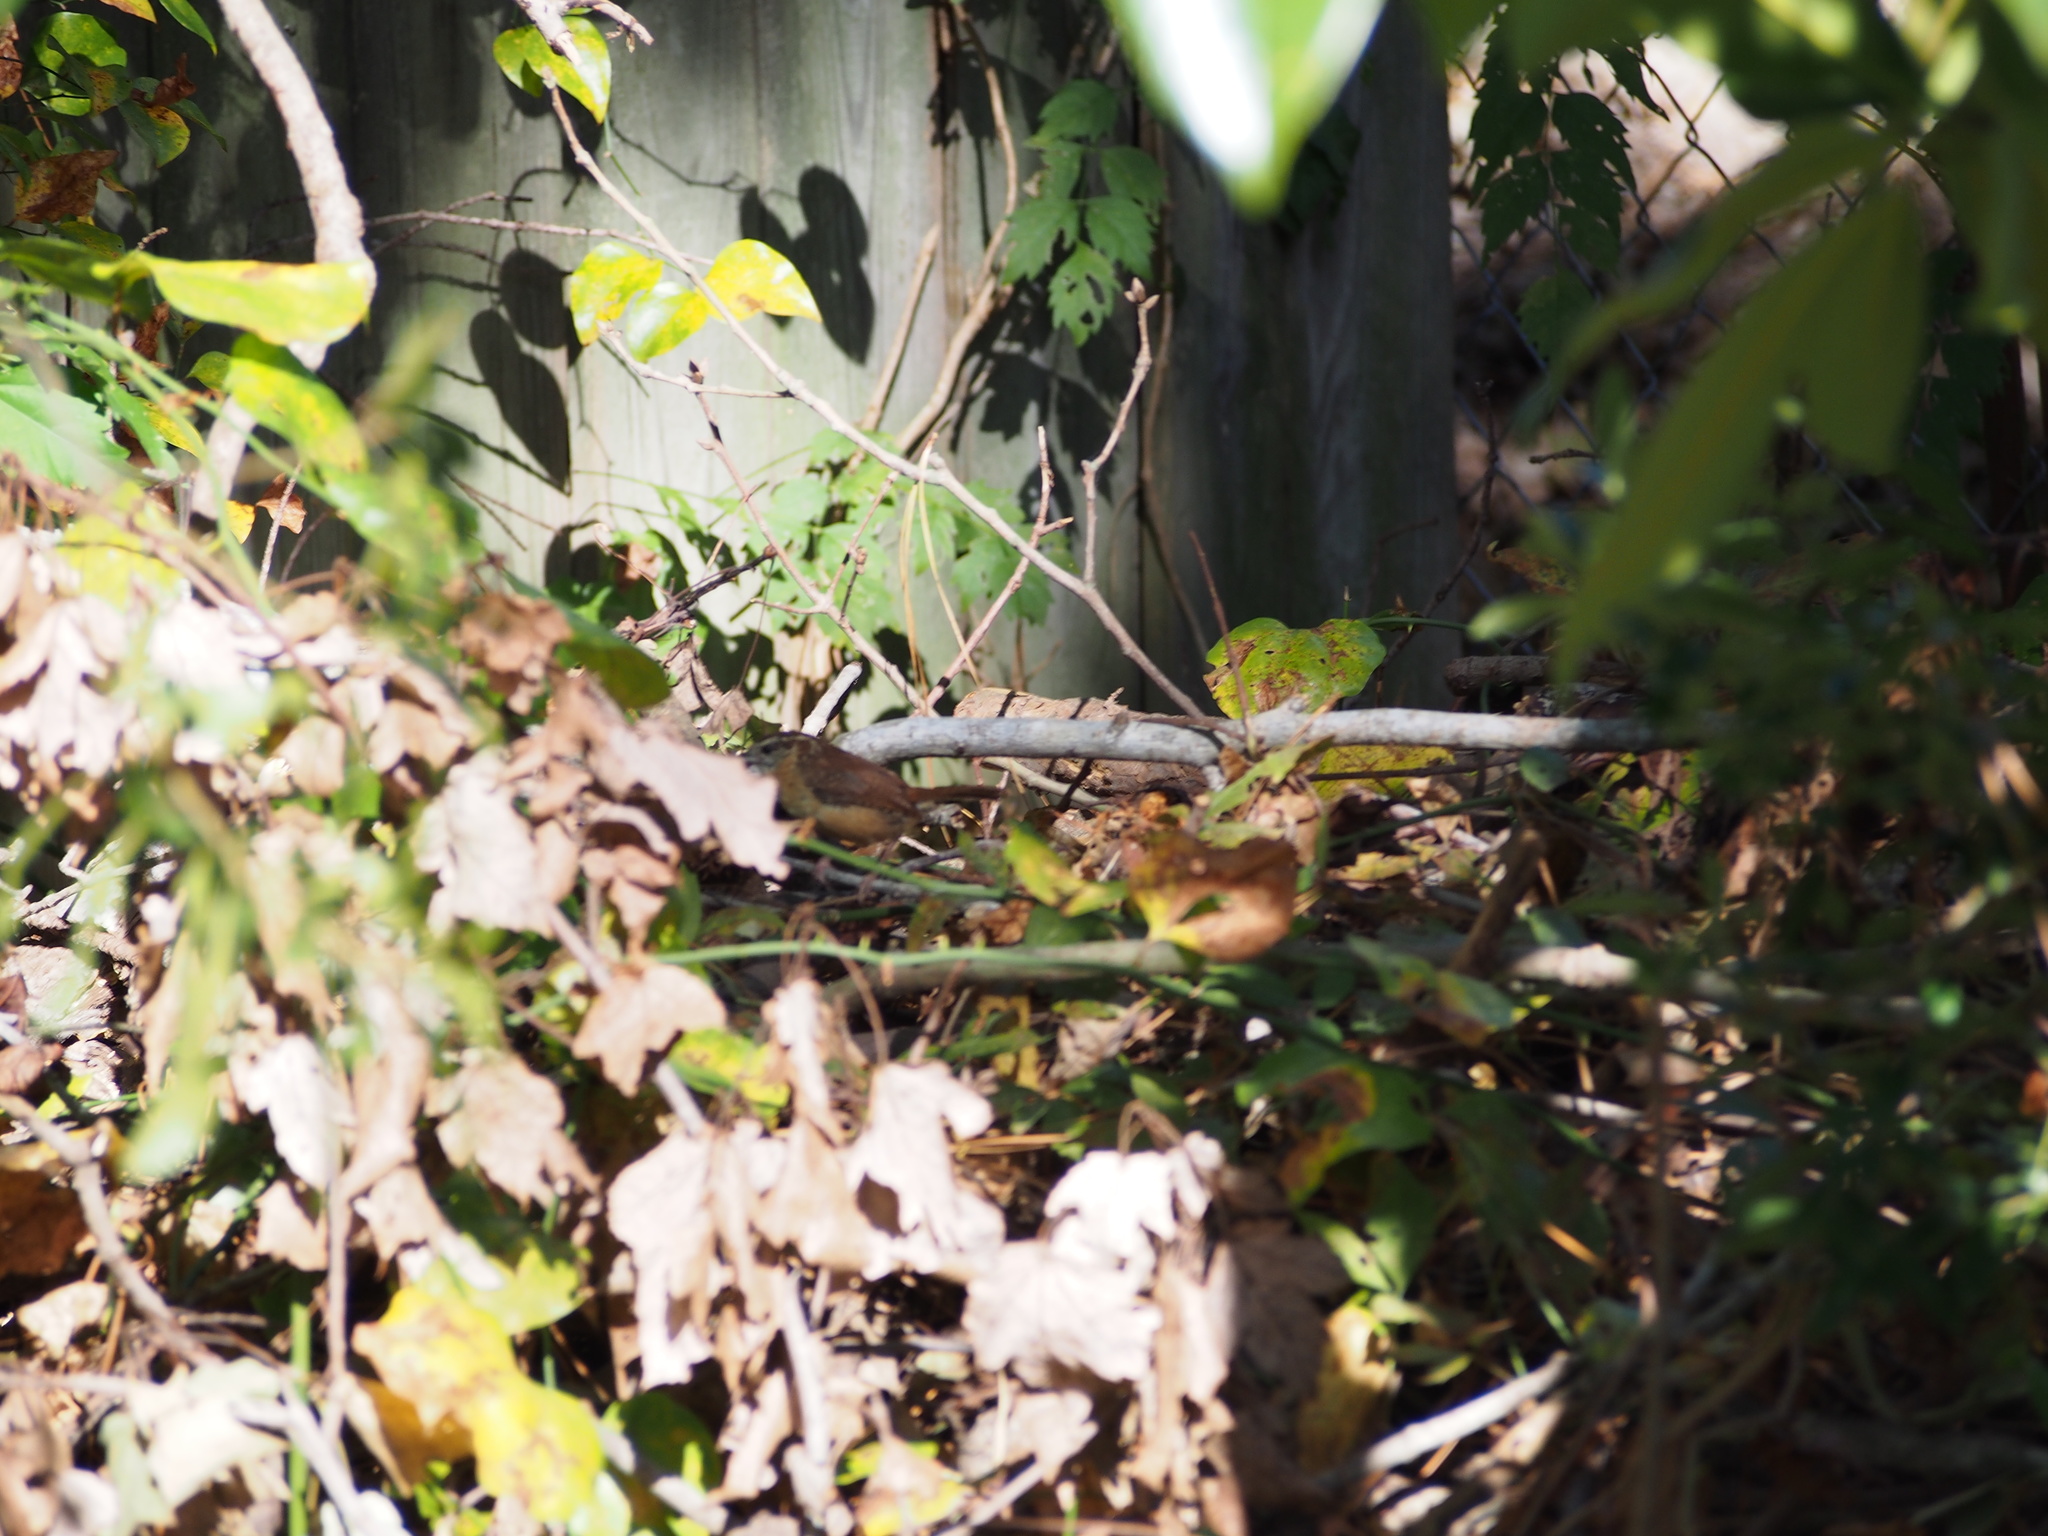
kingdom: Animalia
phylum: Chordata
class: Aves
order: Passeriformes
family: Troglodytidae
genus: Thryothorus
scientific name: Thryothorus ludovicianus
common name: Carolina wren
